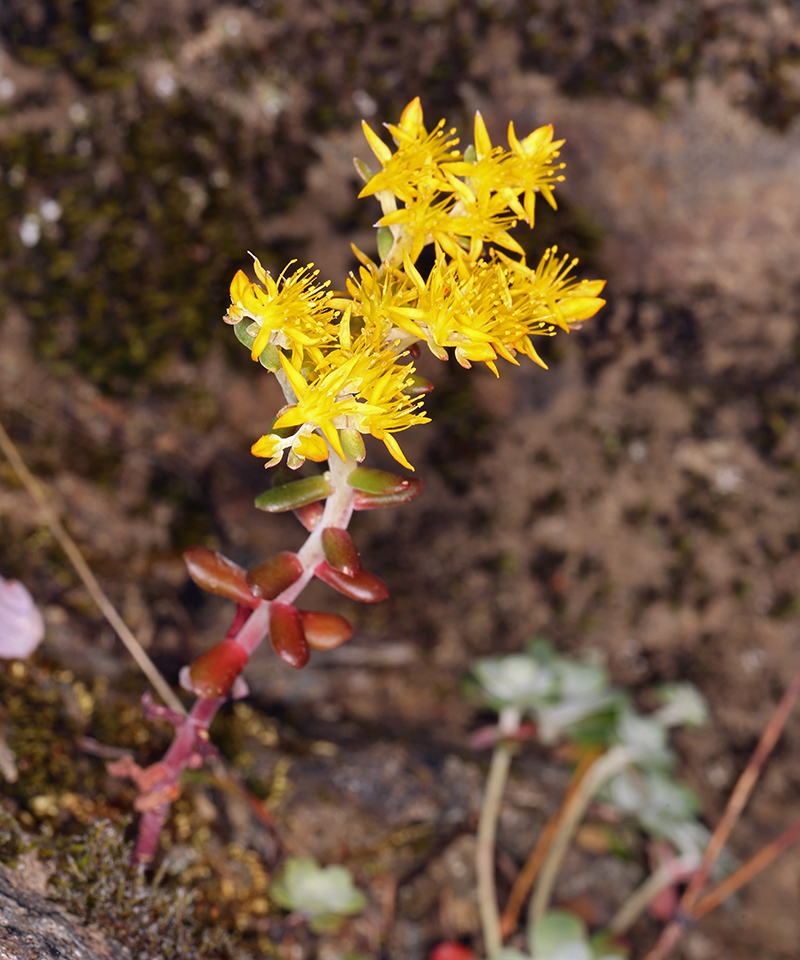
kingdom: Plantae
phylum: Tracheophyta
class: Magnoliopsida
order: Saxifragales
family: Crassulaceae
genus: Sedum
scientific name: Sedum spathulifolium
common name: Colorado stonecrop
